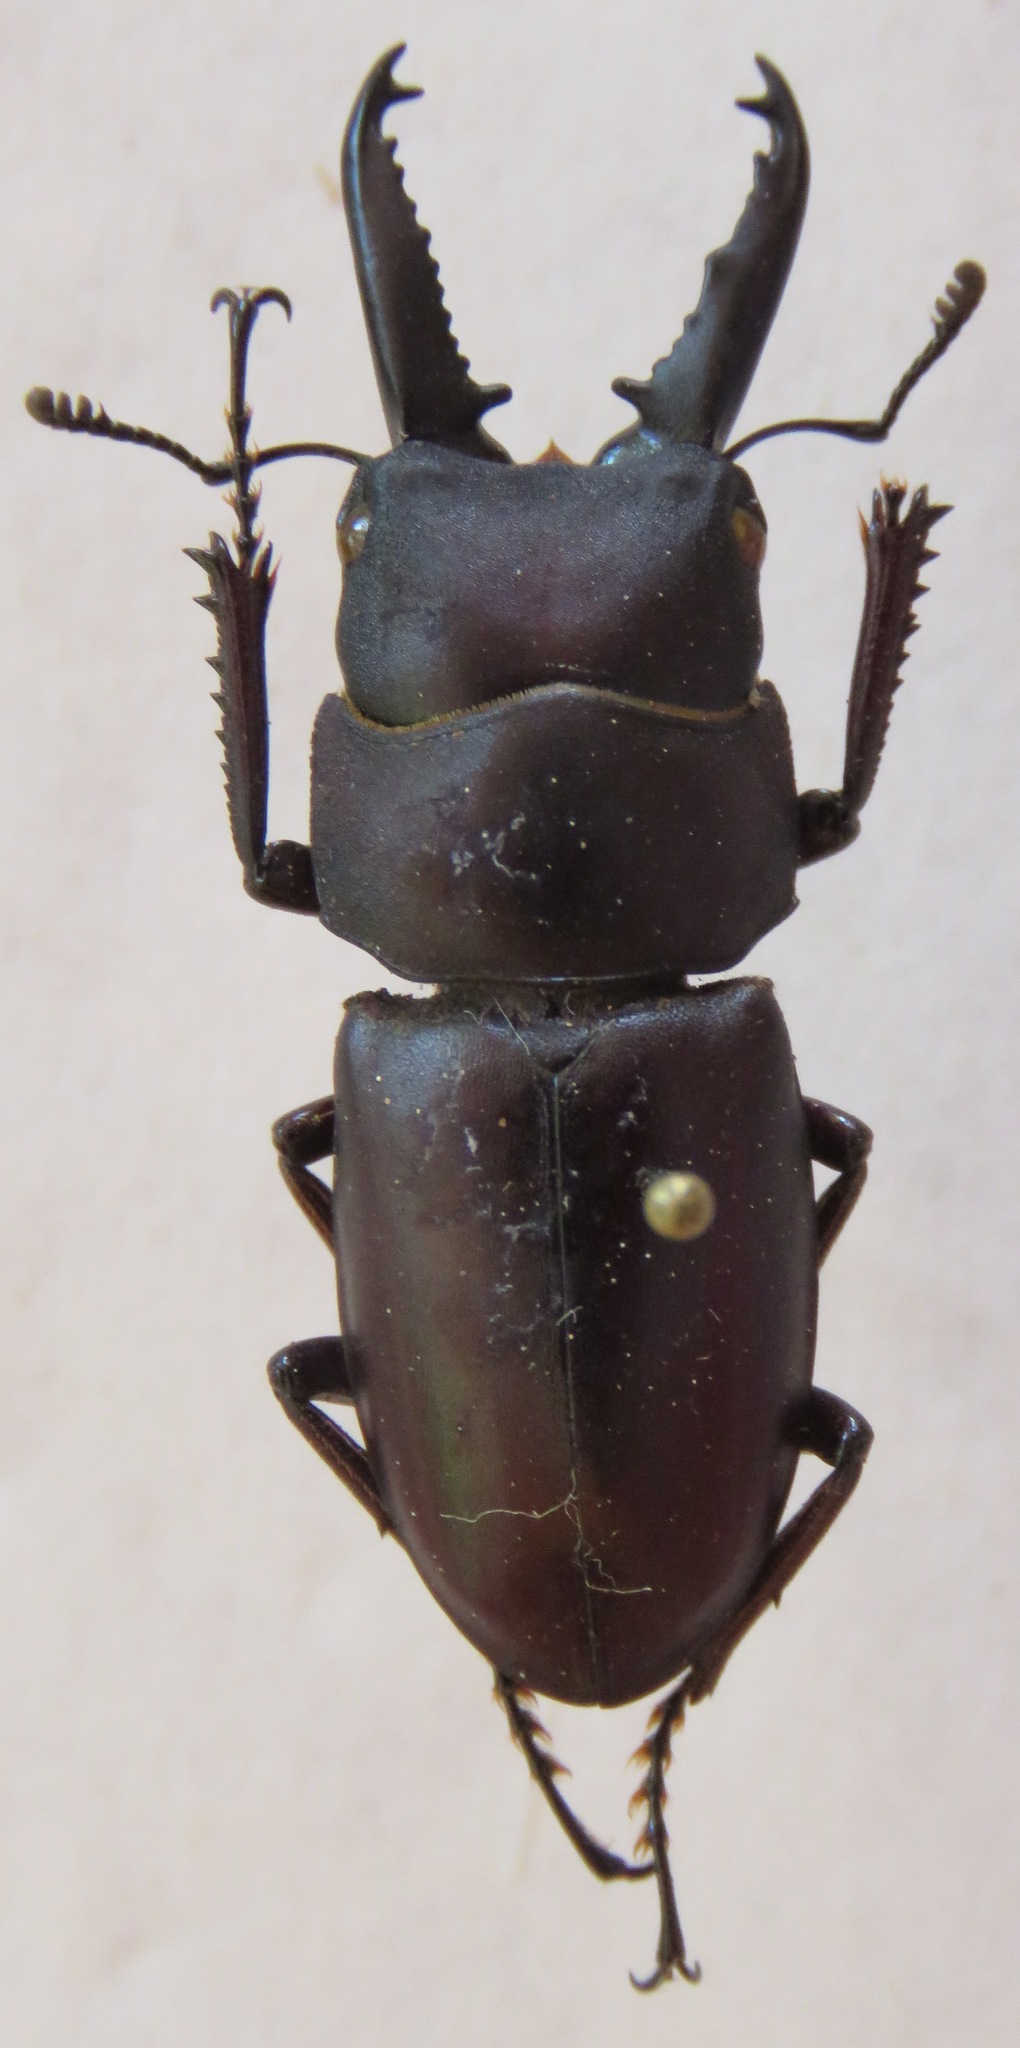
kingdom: Animalia
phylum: Arthropoda
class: Insecta
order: Coleoptera
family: Lucanidae
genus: Epidorcus
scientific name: Epidorcus denticulatus
